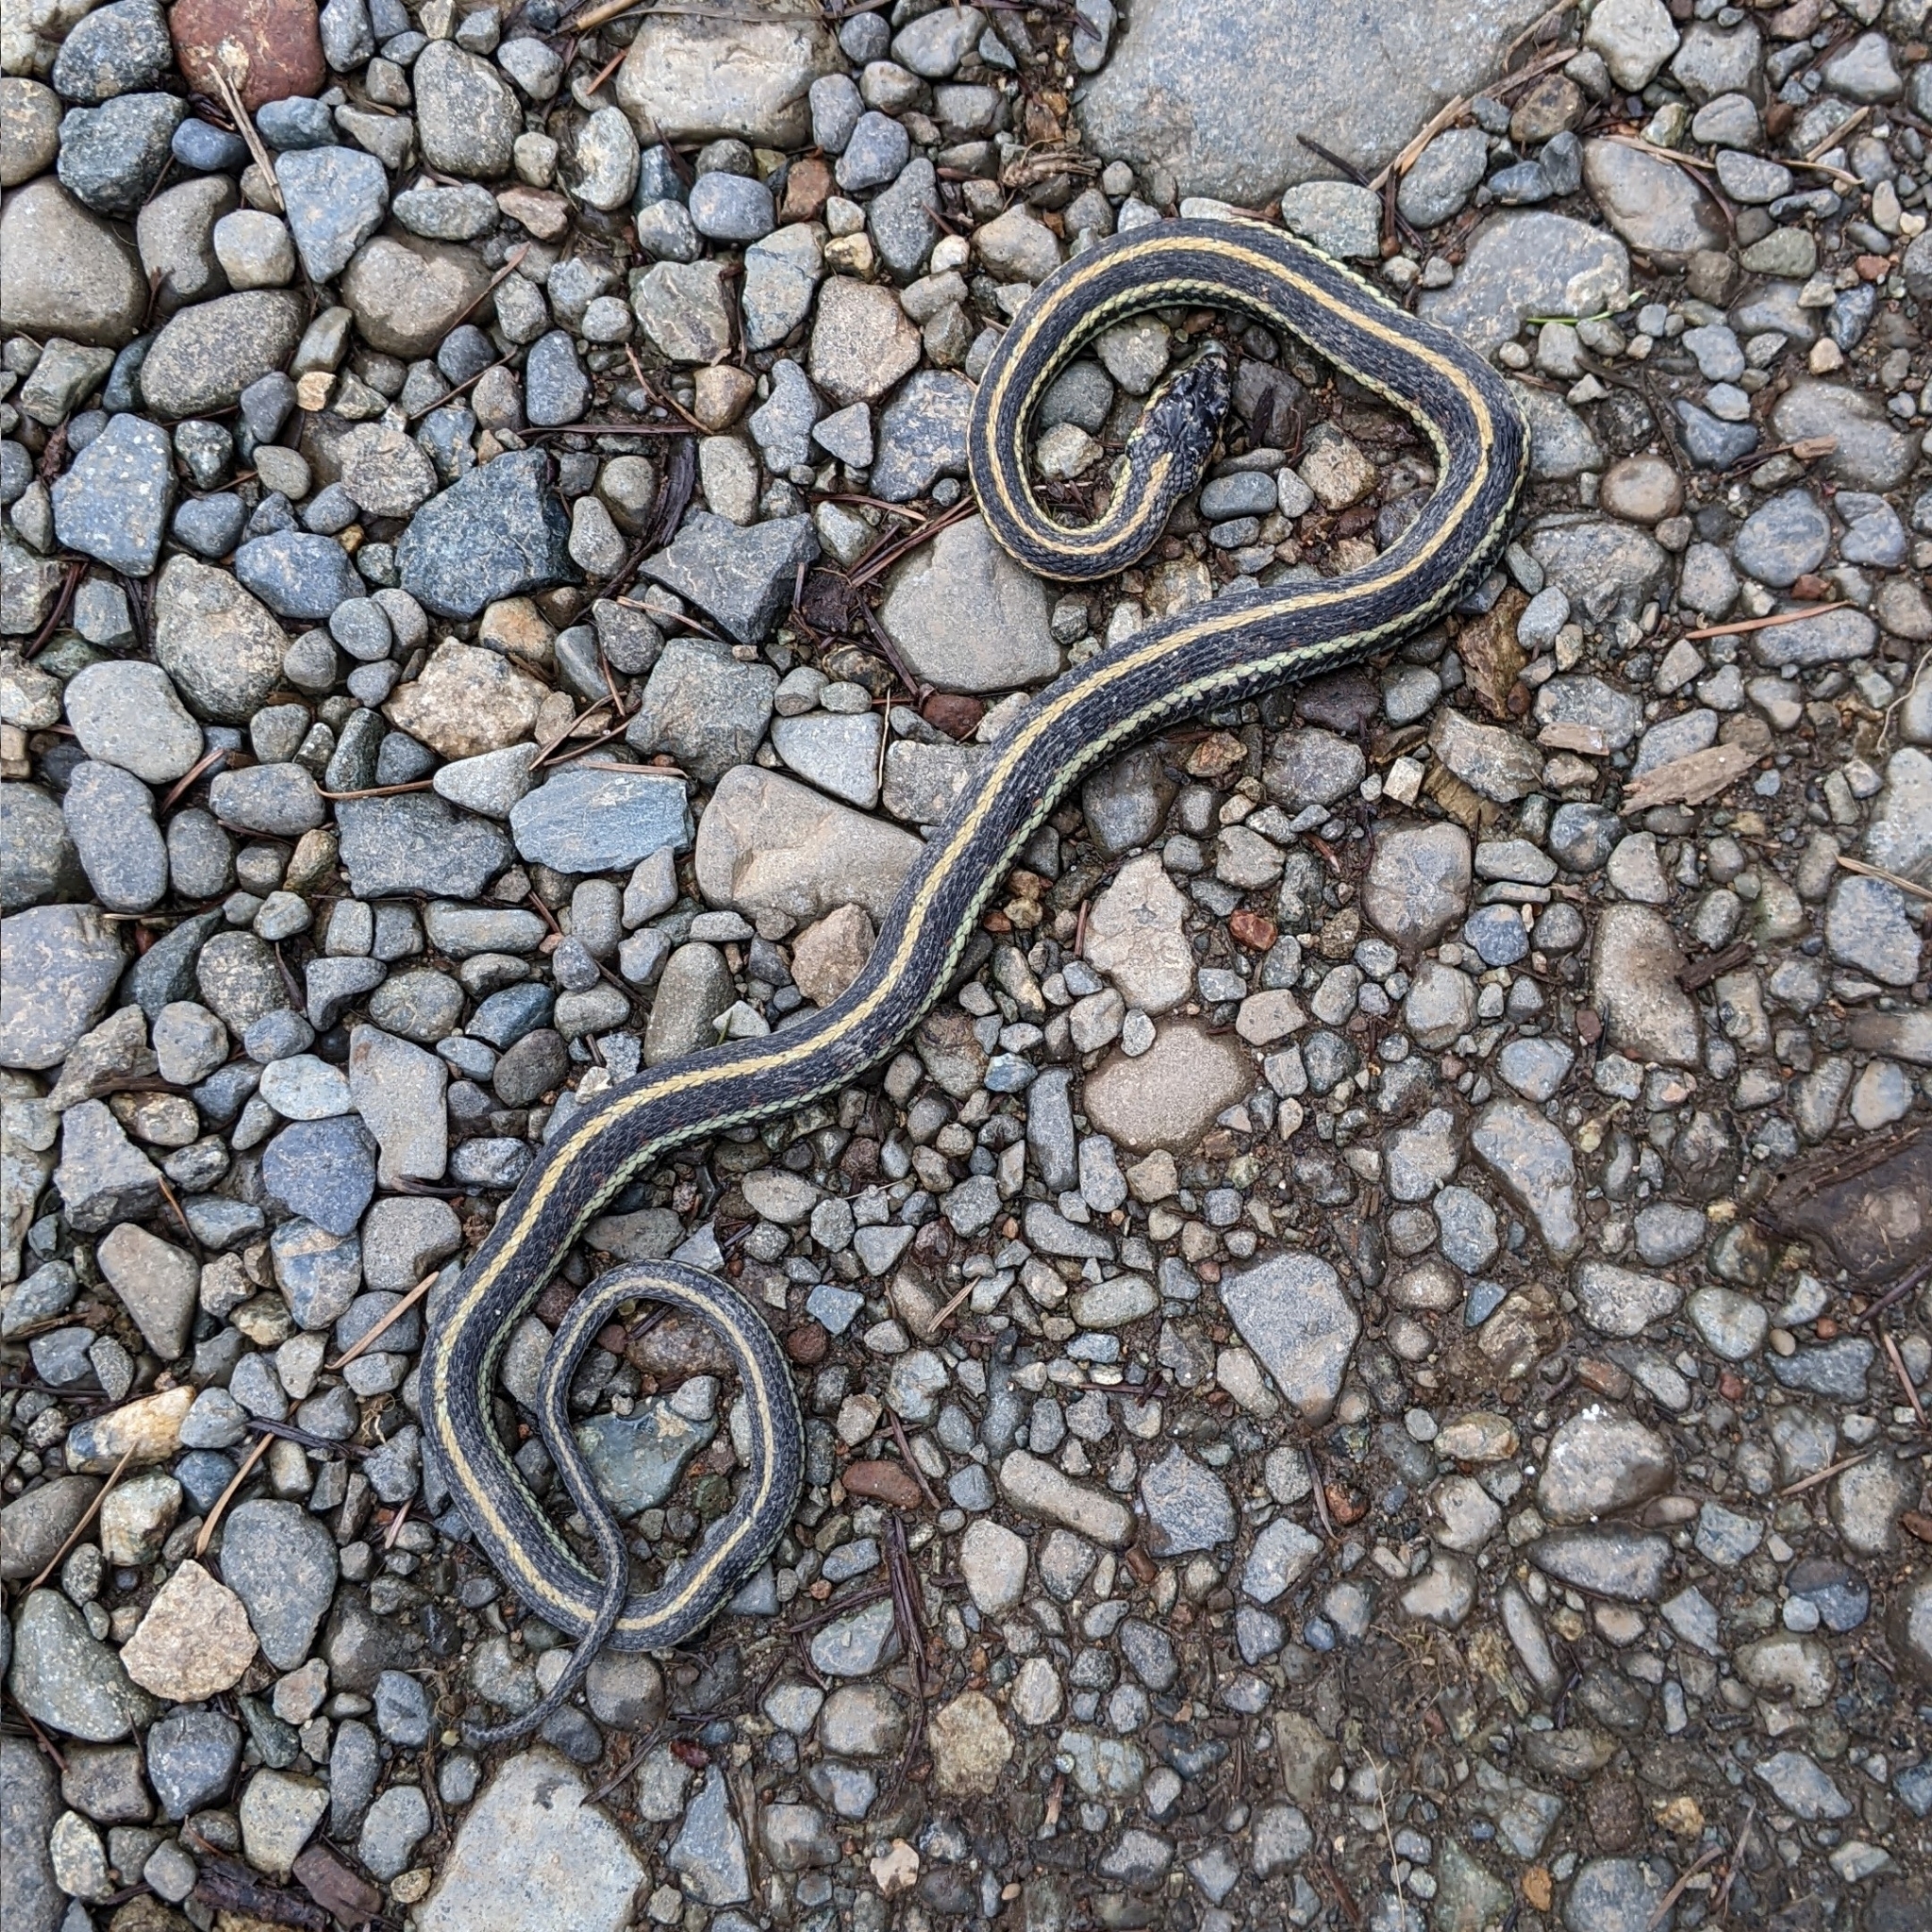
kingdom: Animalia
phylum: Chordata
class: Squamata
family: Colubridae
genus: Thamnophis
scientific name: Thamnophis sirtalis
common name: Common garter snake
